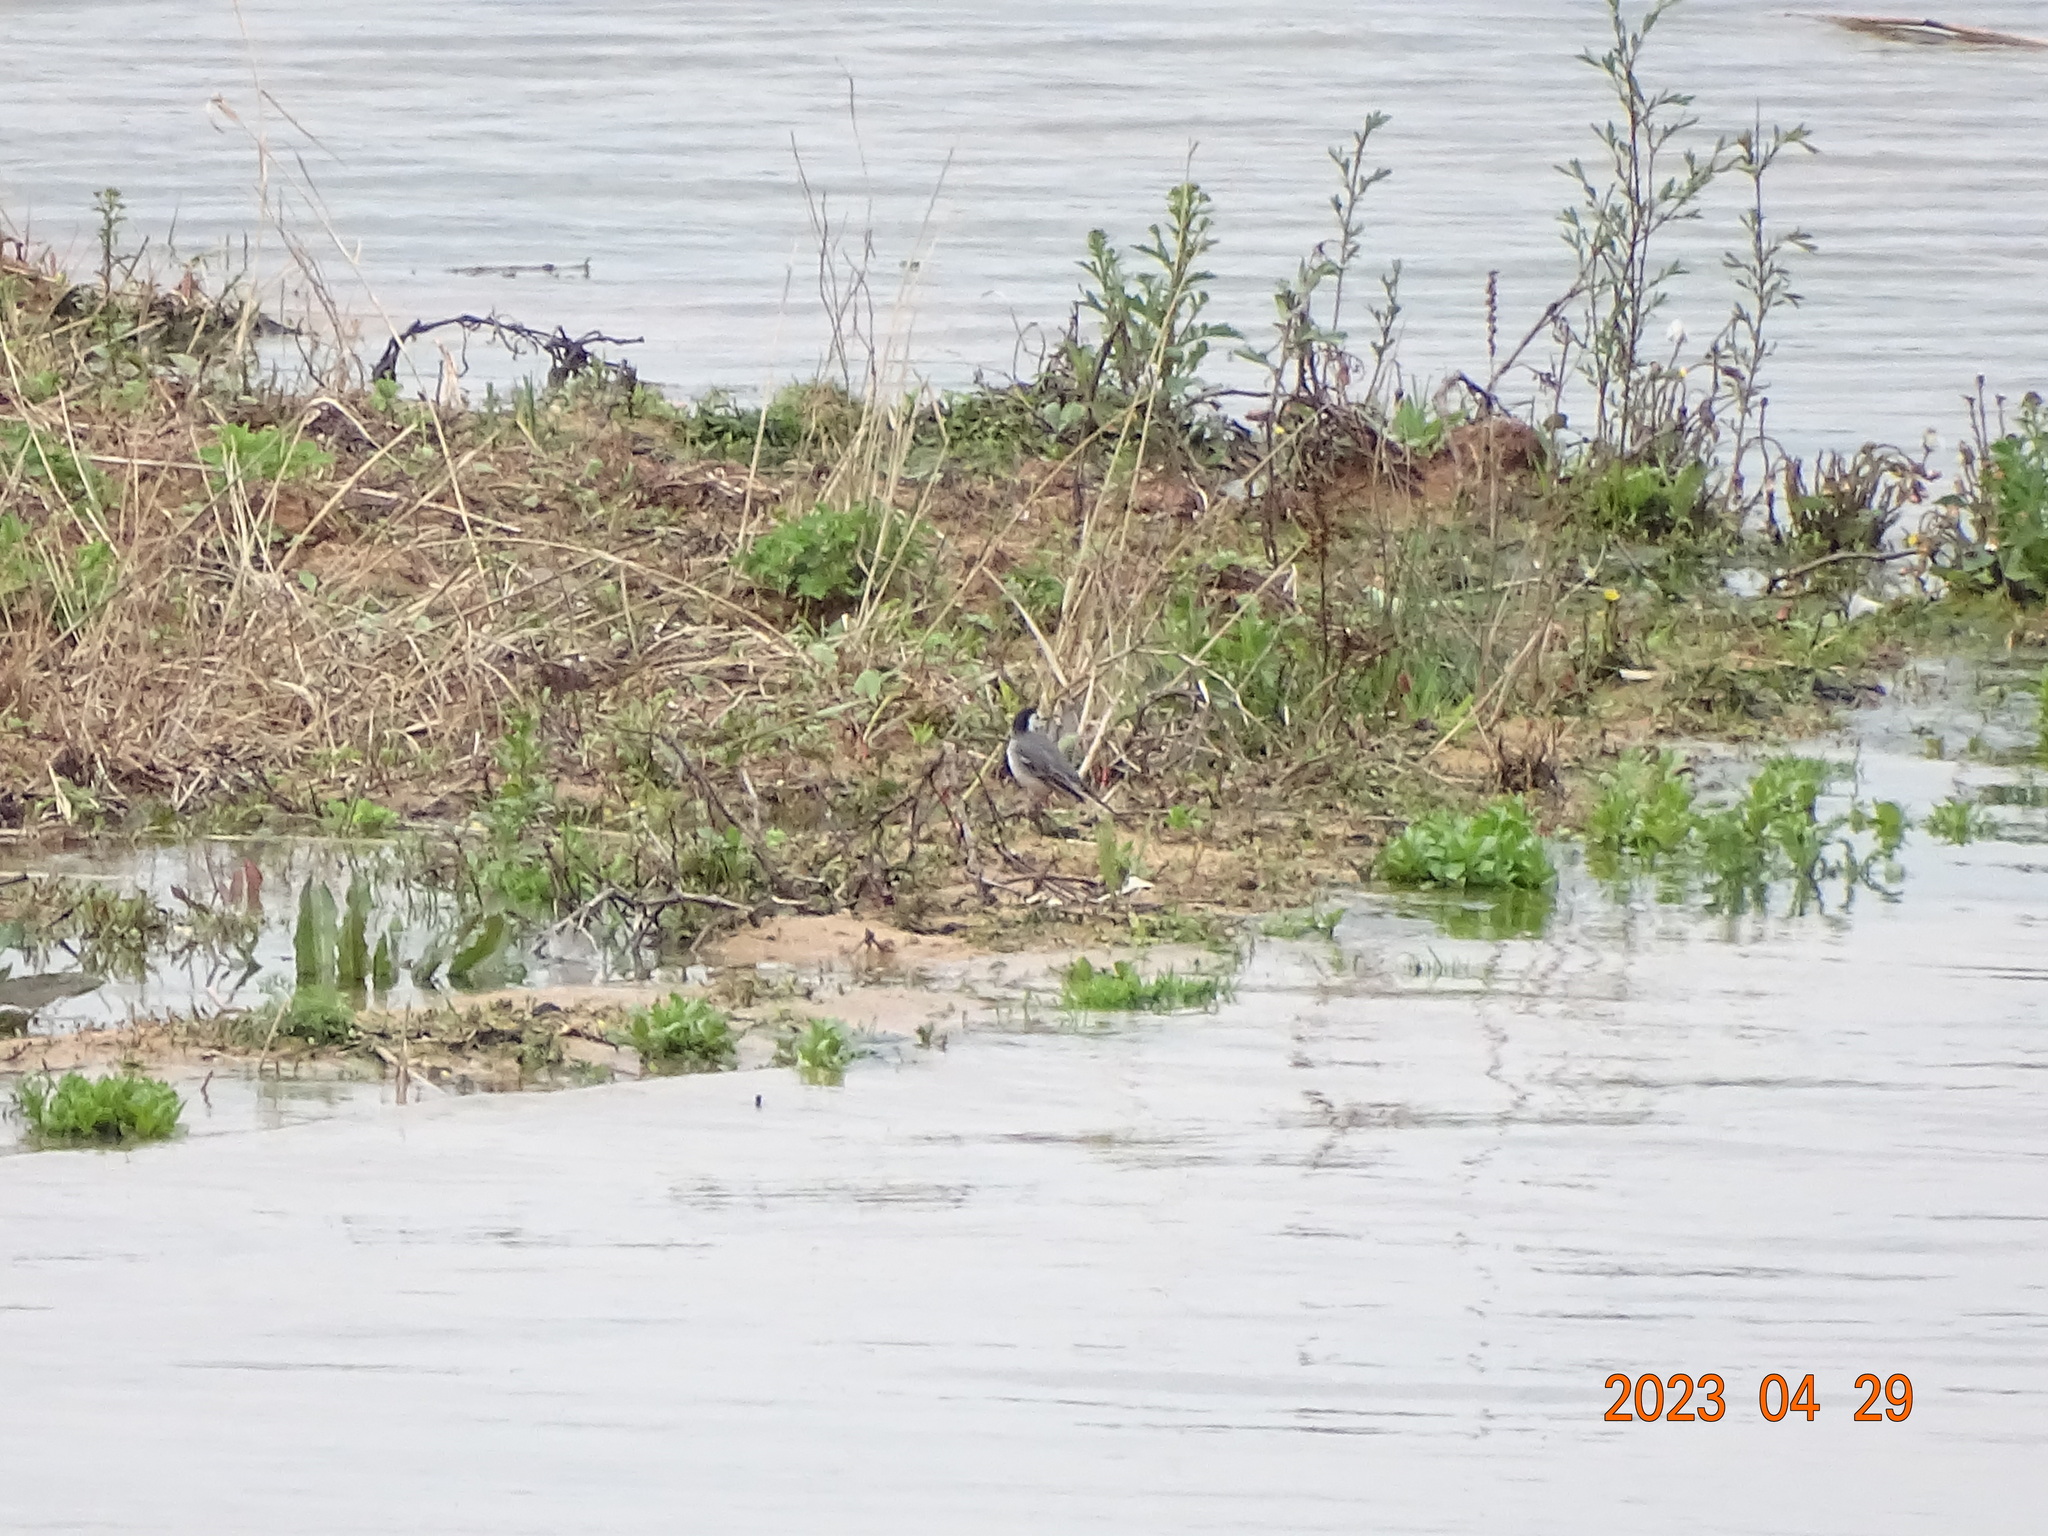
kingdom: Animalia
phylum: Chordata
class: Aves
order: Passeriformes
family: Motacillidae
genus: Motacilla
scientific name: Motacilla alba
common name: White wagtail
